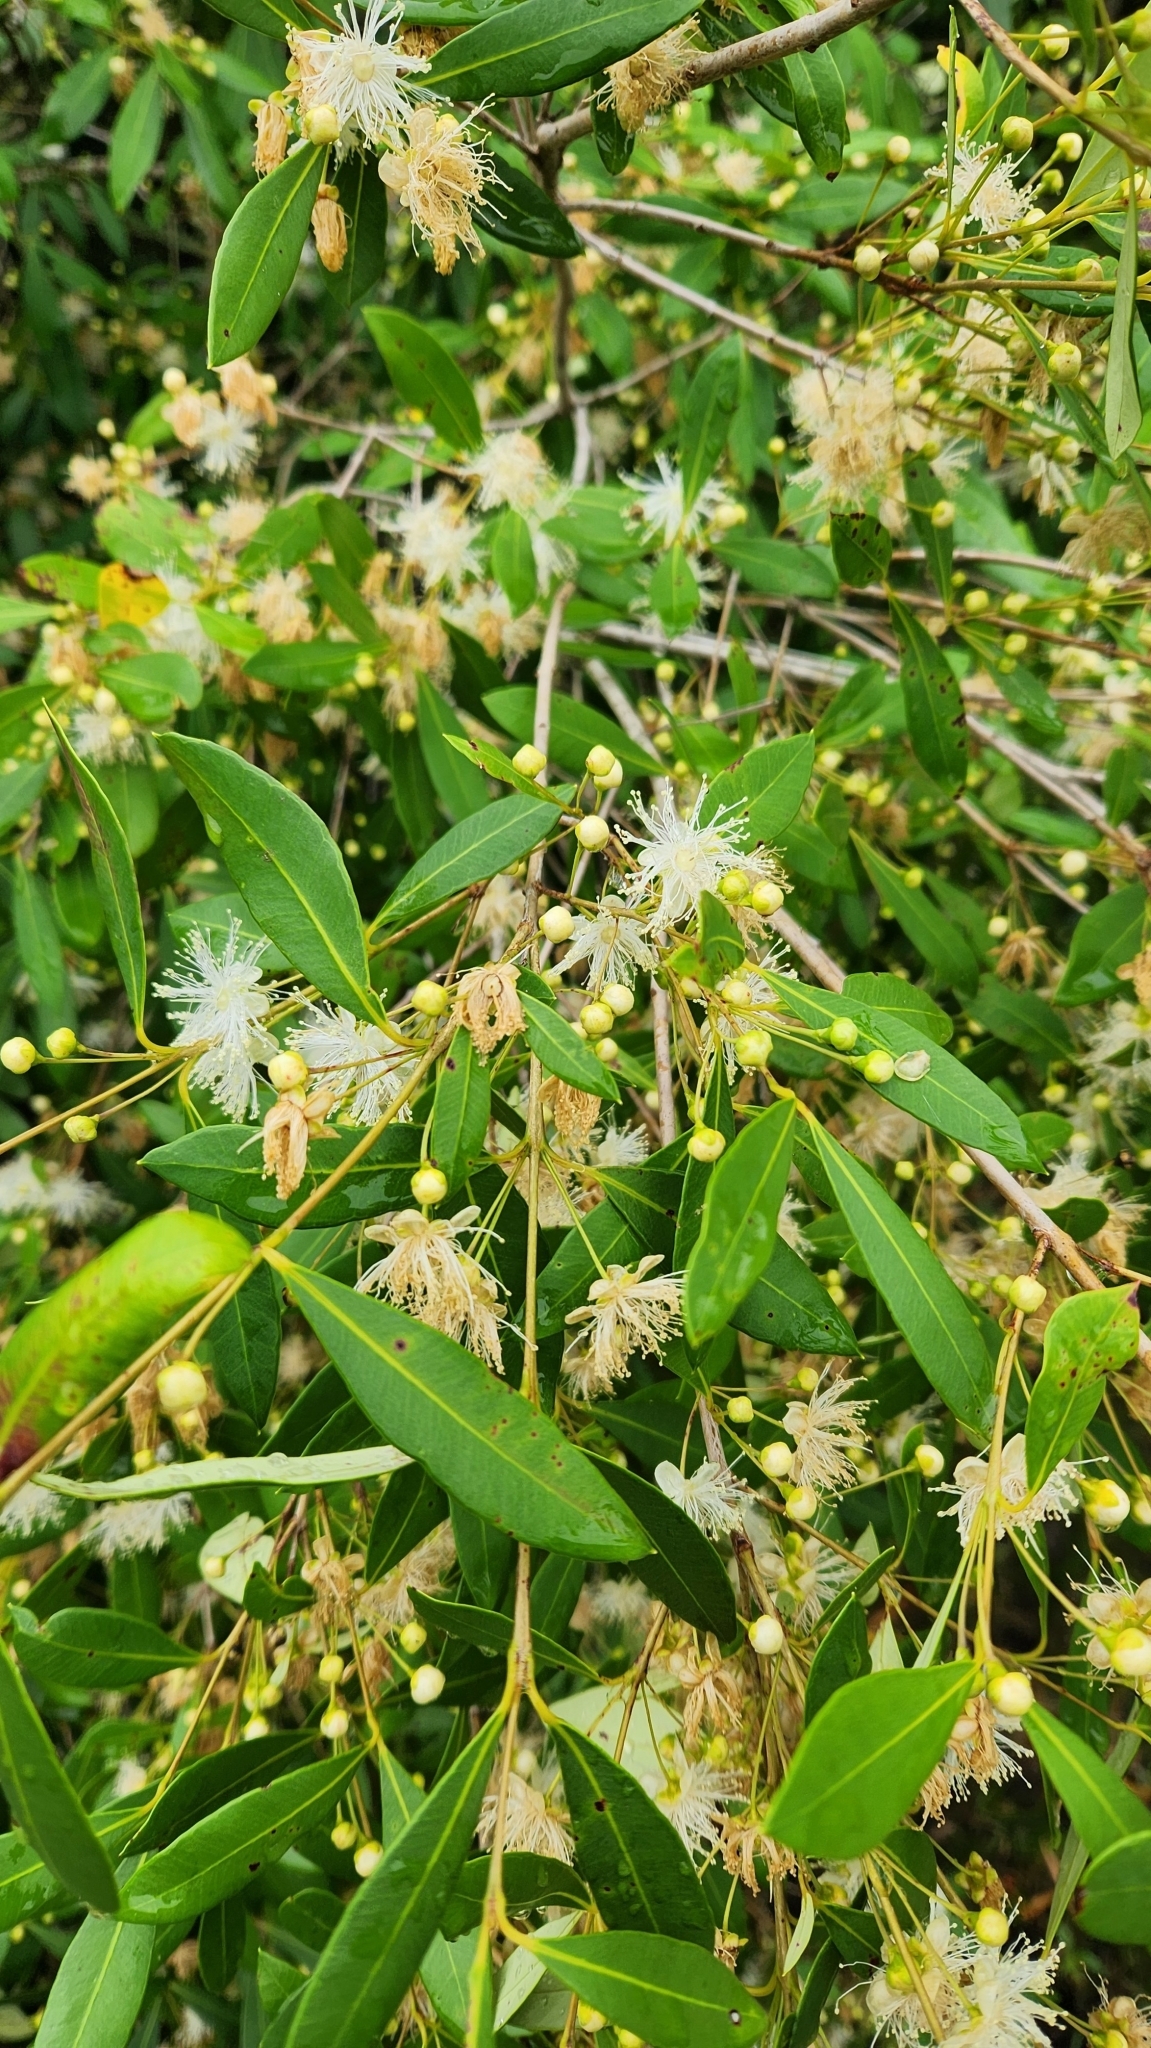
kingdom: Plantae
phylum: Tracheophyta
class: Magnoliopsida
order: Myrtales
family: Myrtaceae
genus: Myrceugenia
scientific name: Myrceugenia glaucescens
